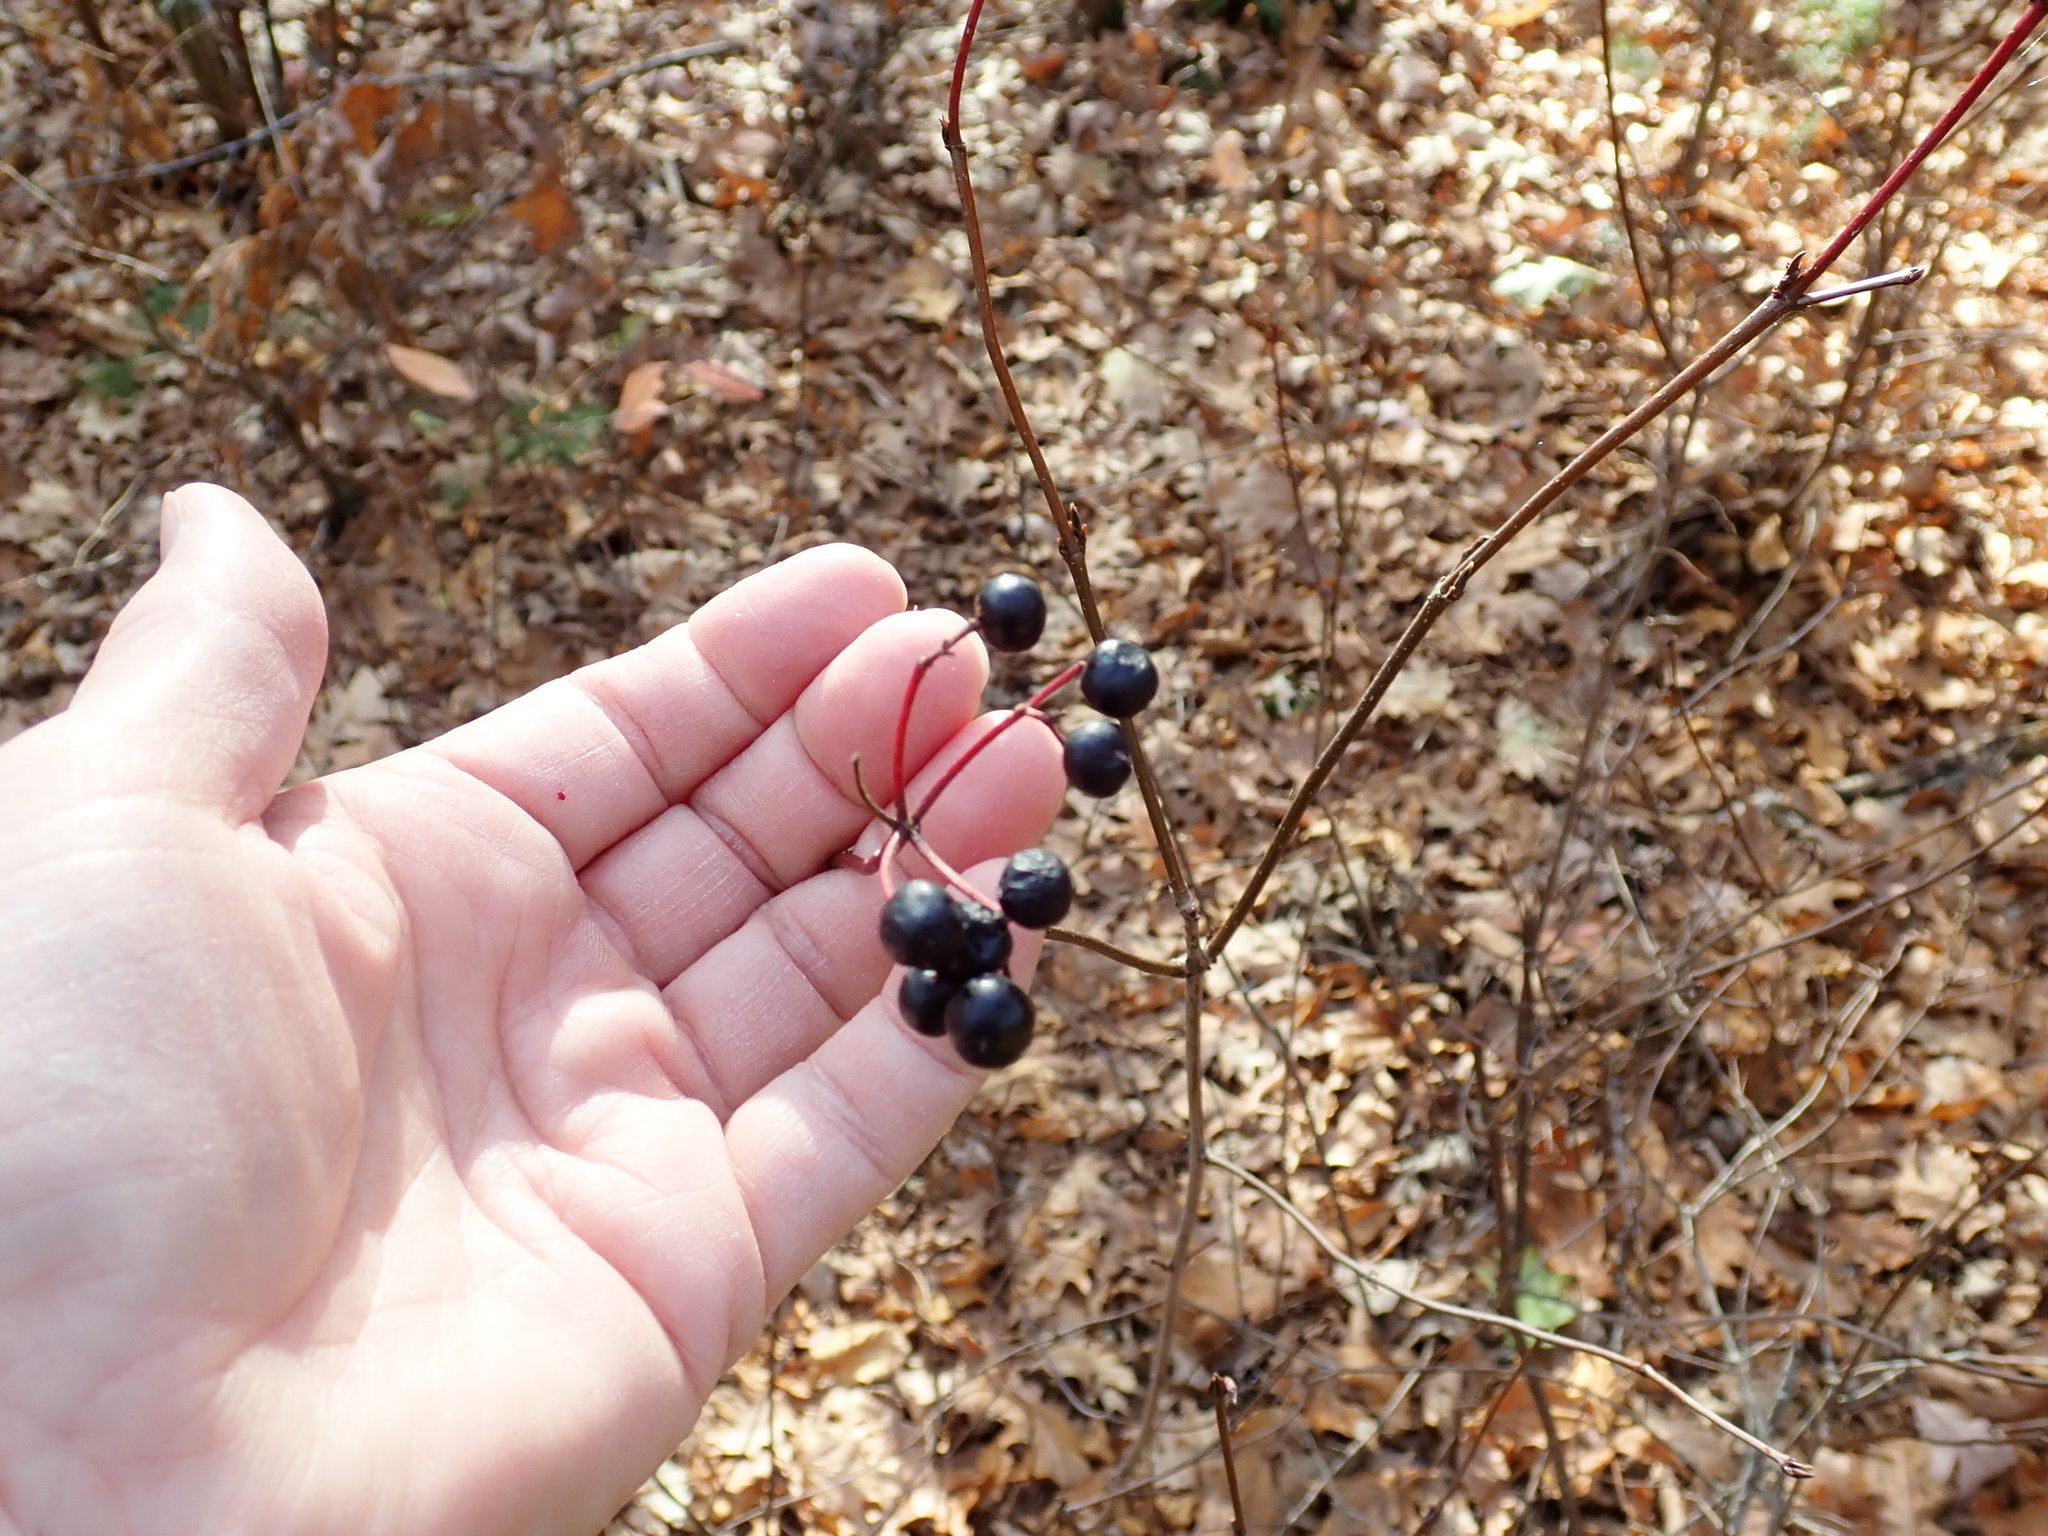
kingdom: Plantae
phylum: Tracheophyta
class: Magnoliopsida
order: Dipsacales
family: Viburnaceae
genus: Viburnum
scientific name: Viburnum acerifolium
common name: Dockmackie
